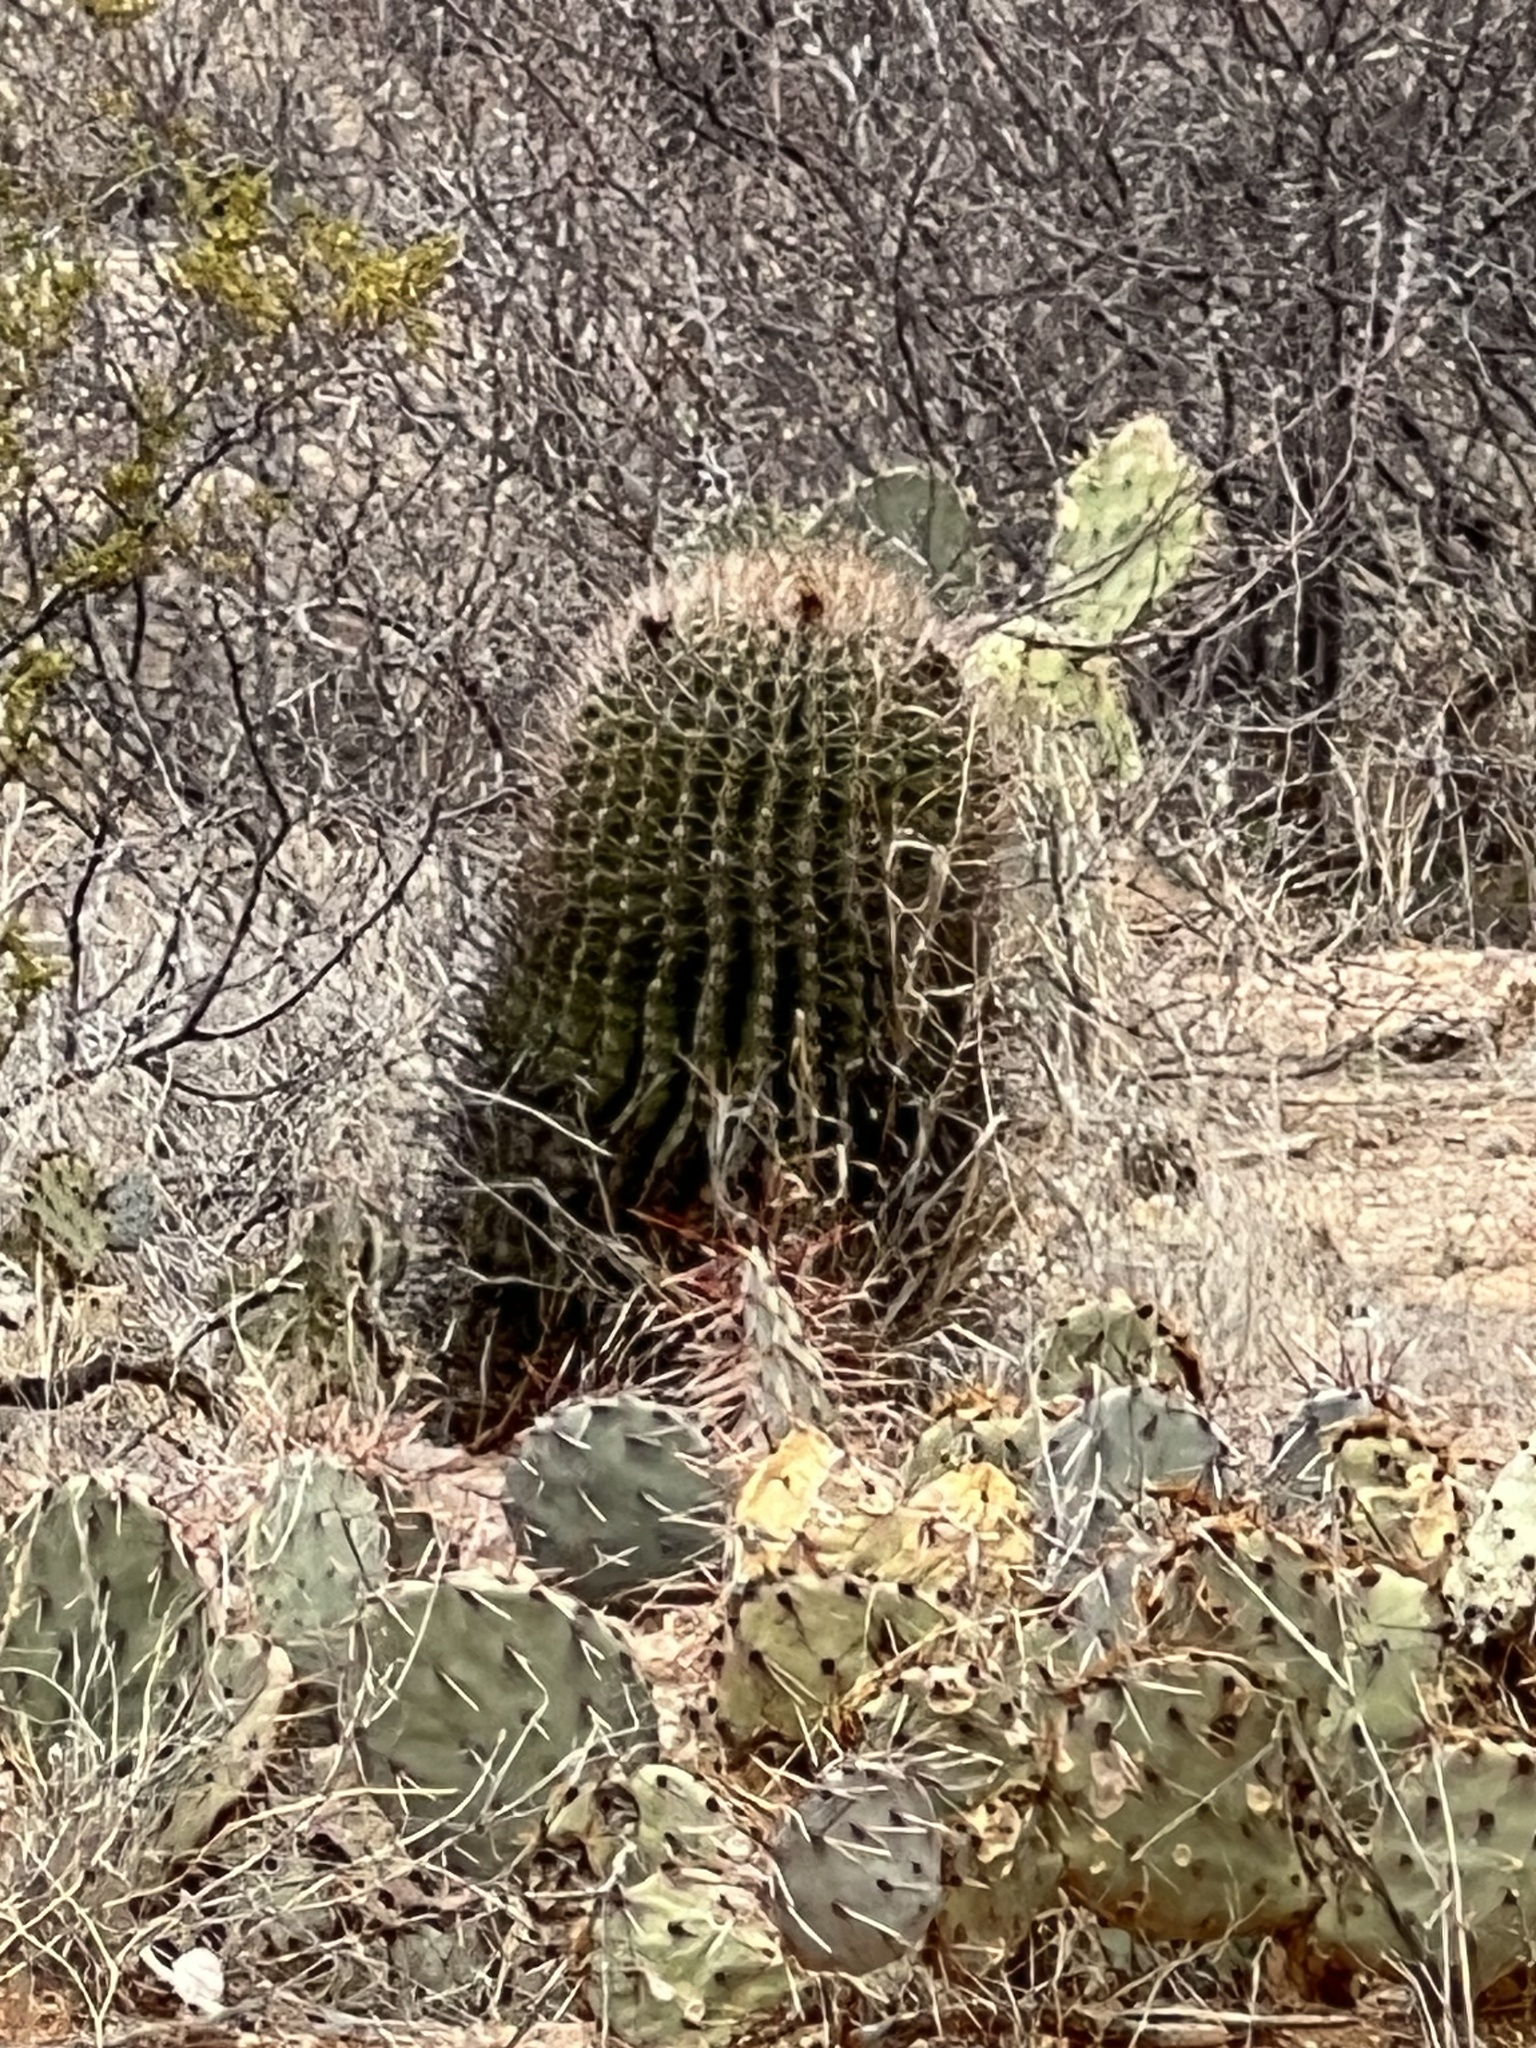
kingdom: Plantae
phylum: Tracheophyta
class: Magnoliopsida
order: Caryophyllales
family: Cactaceae
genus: Ferocactus
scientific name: Ferocactus wislizeni
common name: Candy barrel cactus
